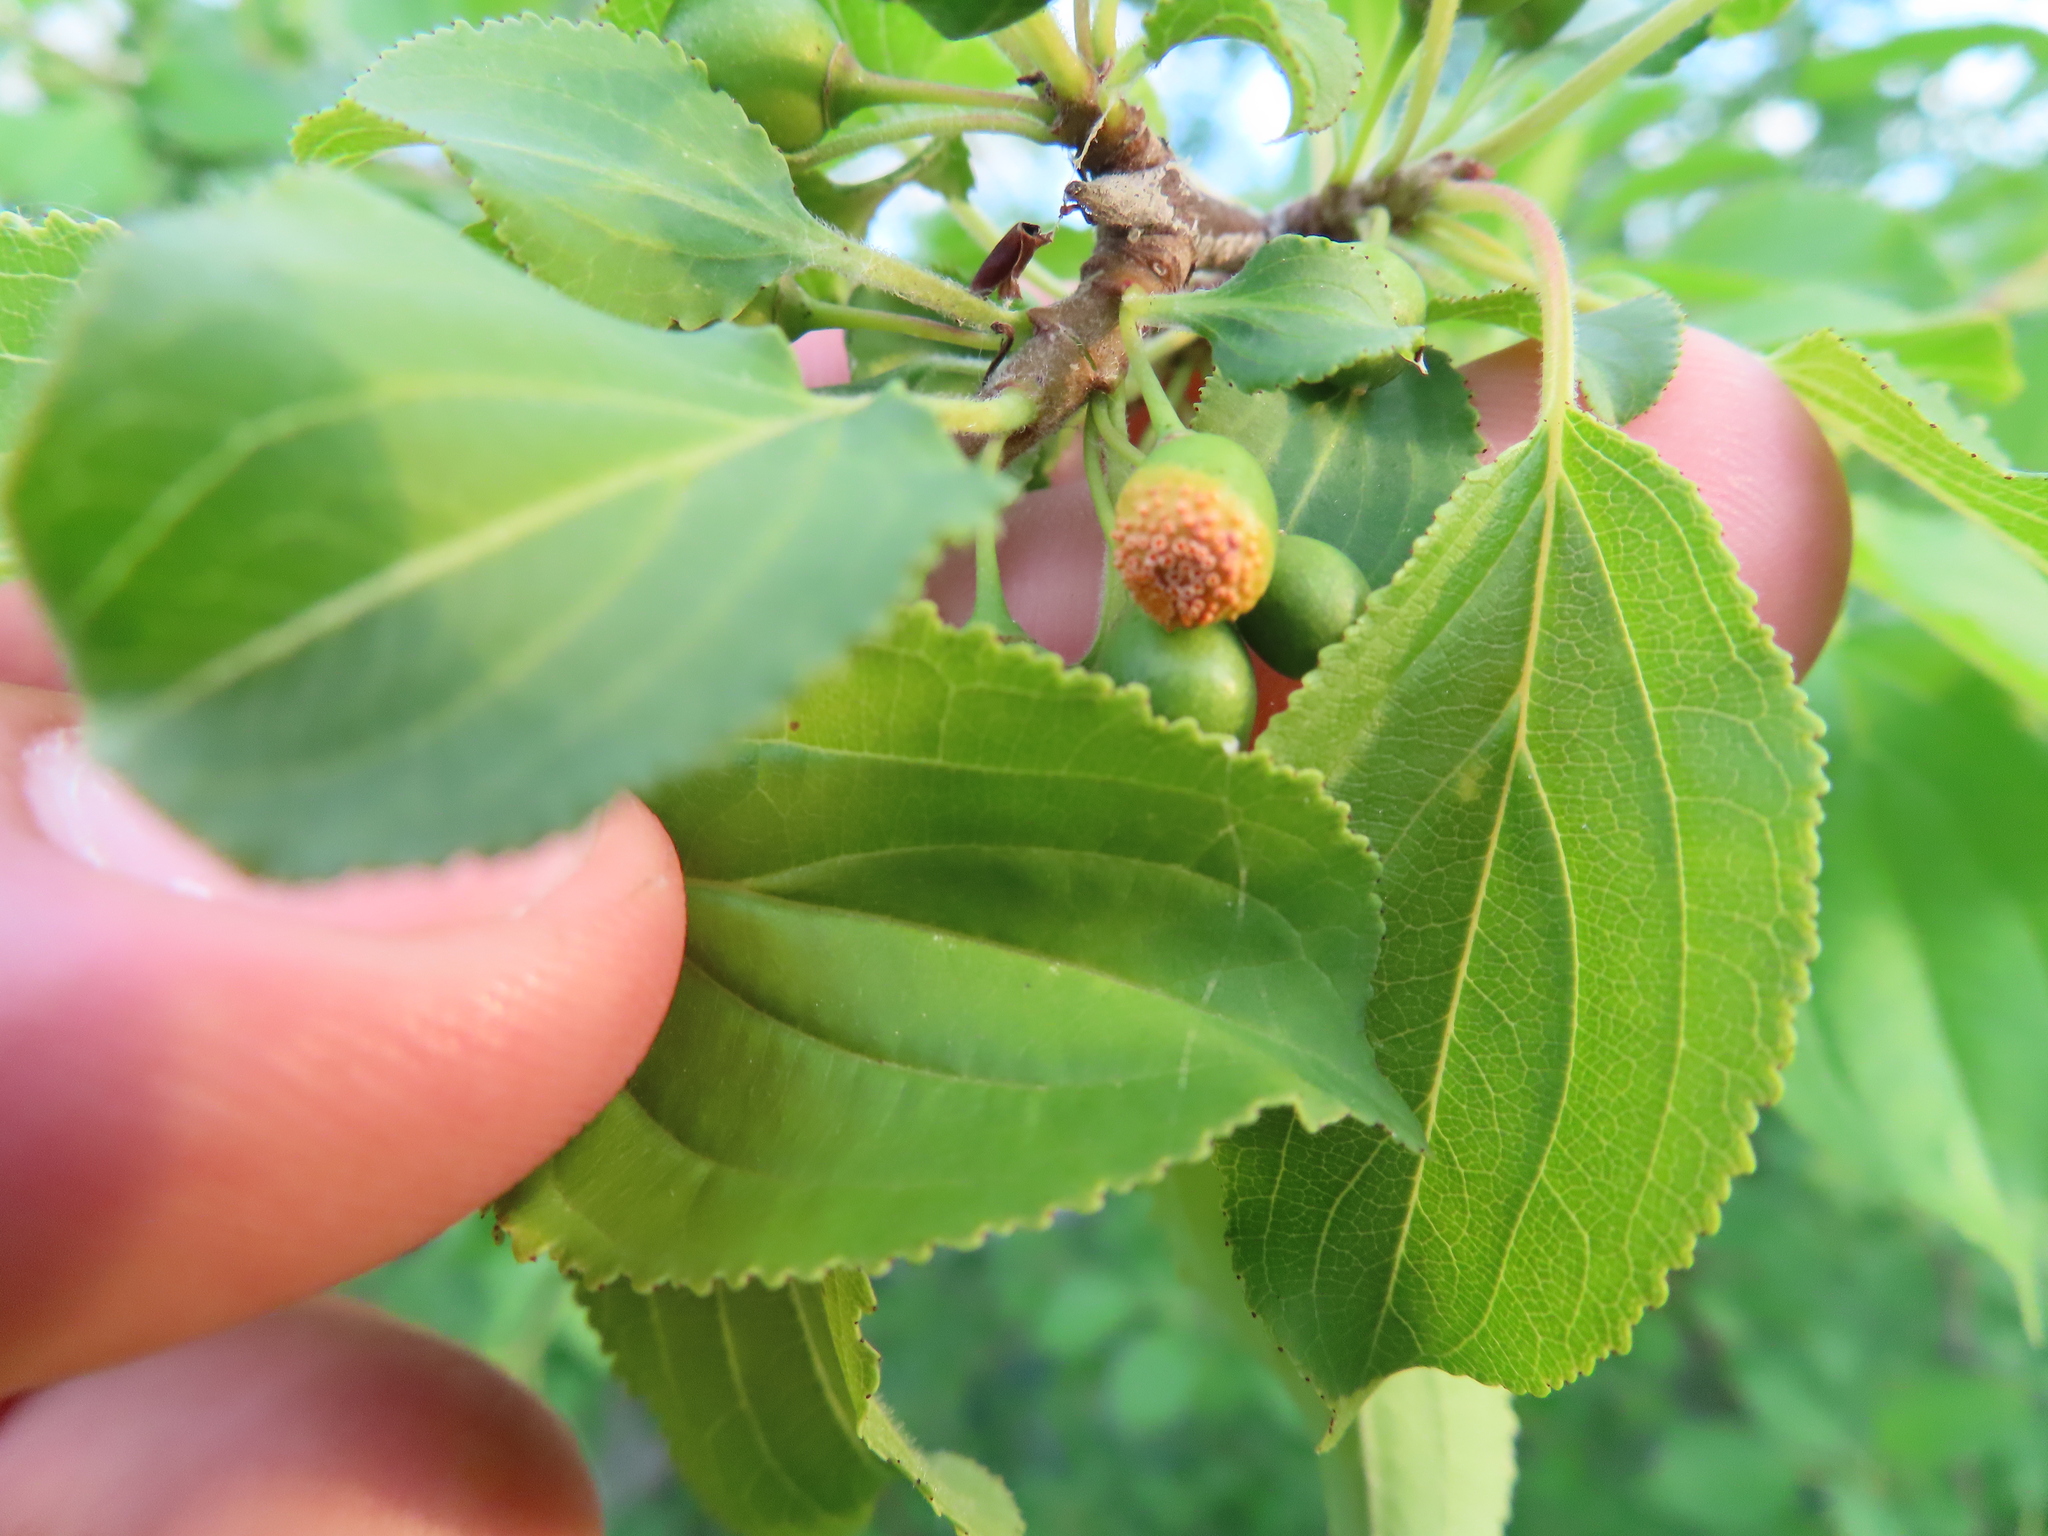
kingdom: Plantae
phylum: Tracheophyta
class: Magnoliopsida
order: Rosales
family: Rhamnaceae
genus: Rhamnus
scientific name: Rhamnus cathartica
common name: Common buckthorn
